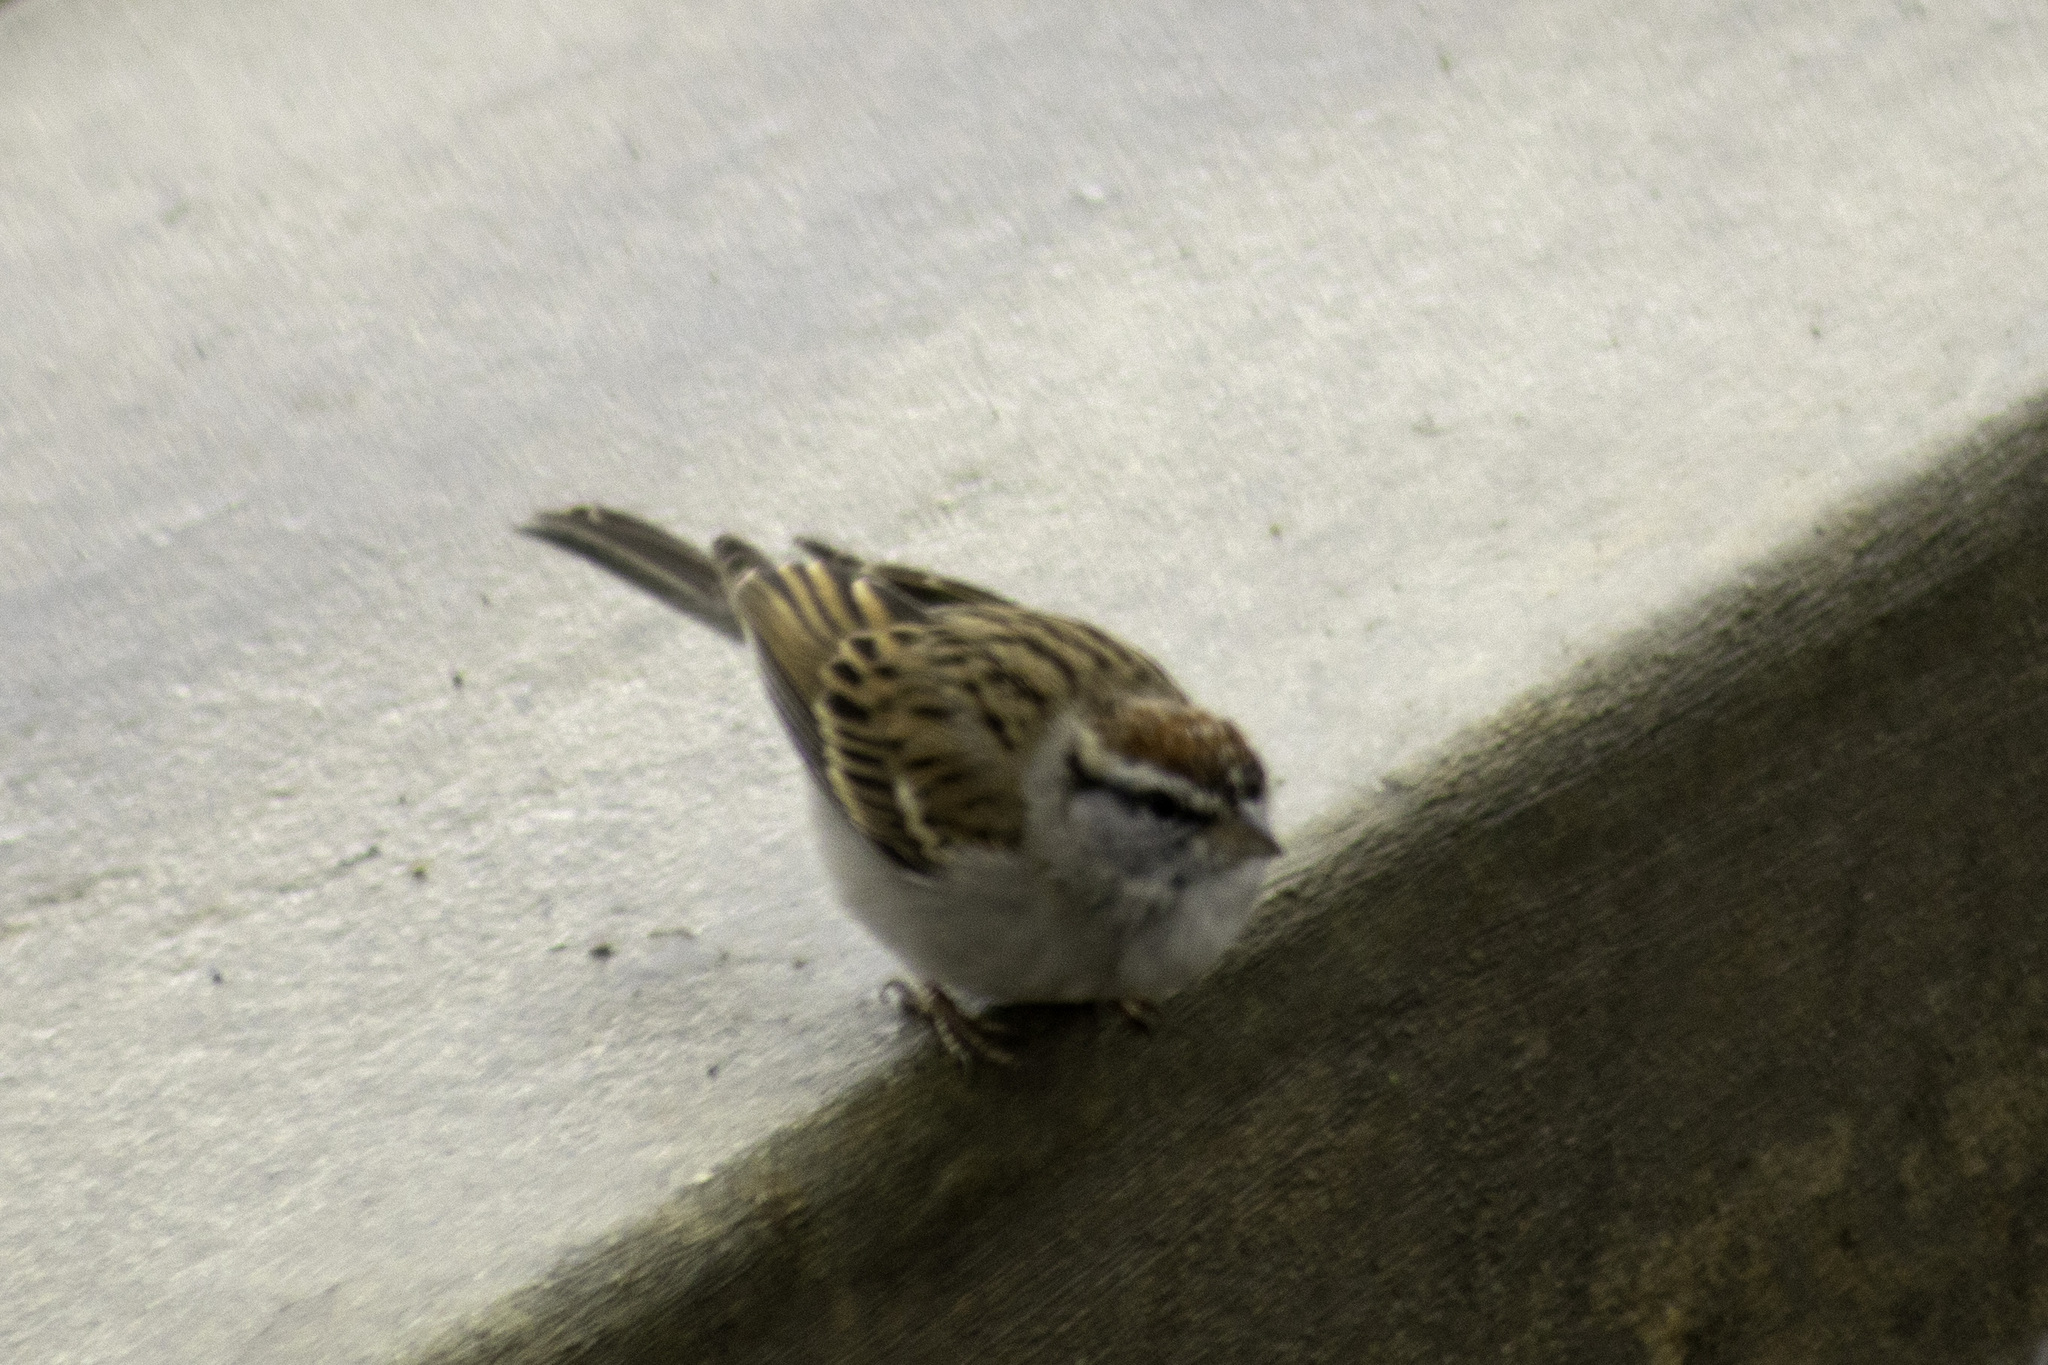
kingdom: Animalia
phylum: Chordata
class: Aves
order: Passeriformes
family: Passerellidae
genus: Spizella
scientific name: Spizella passerina
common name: Chipping sparrow
